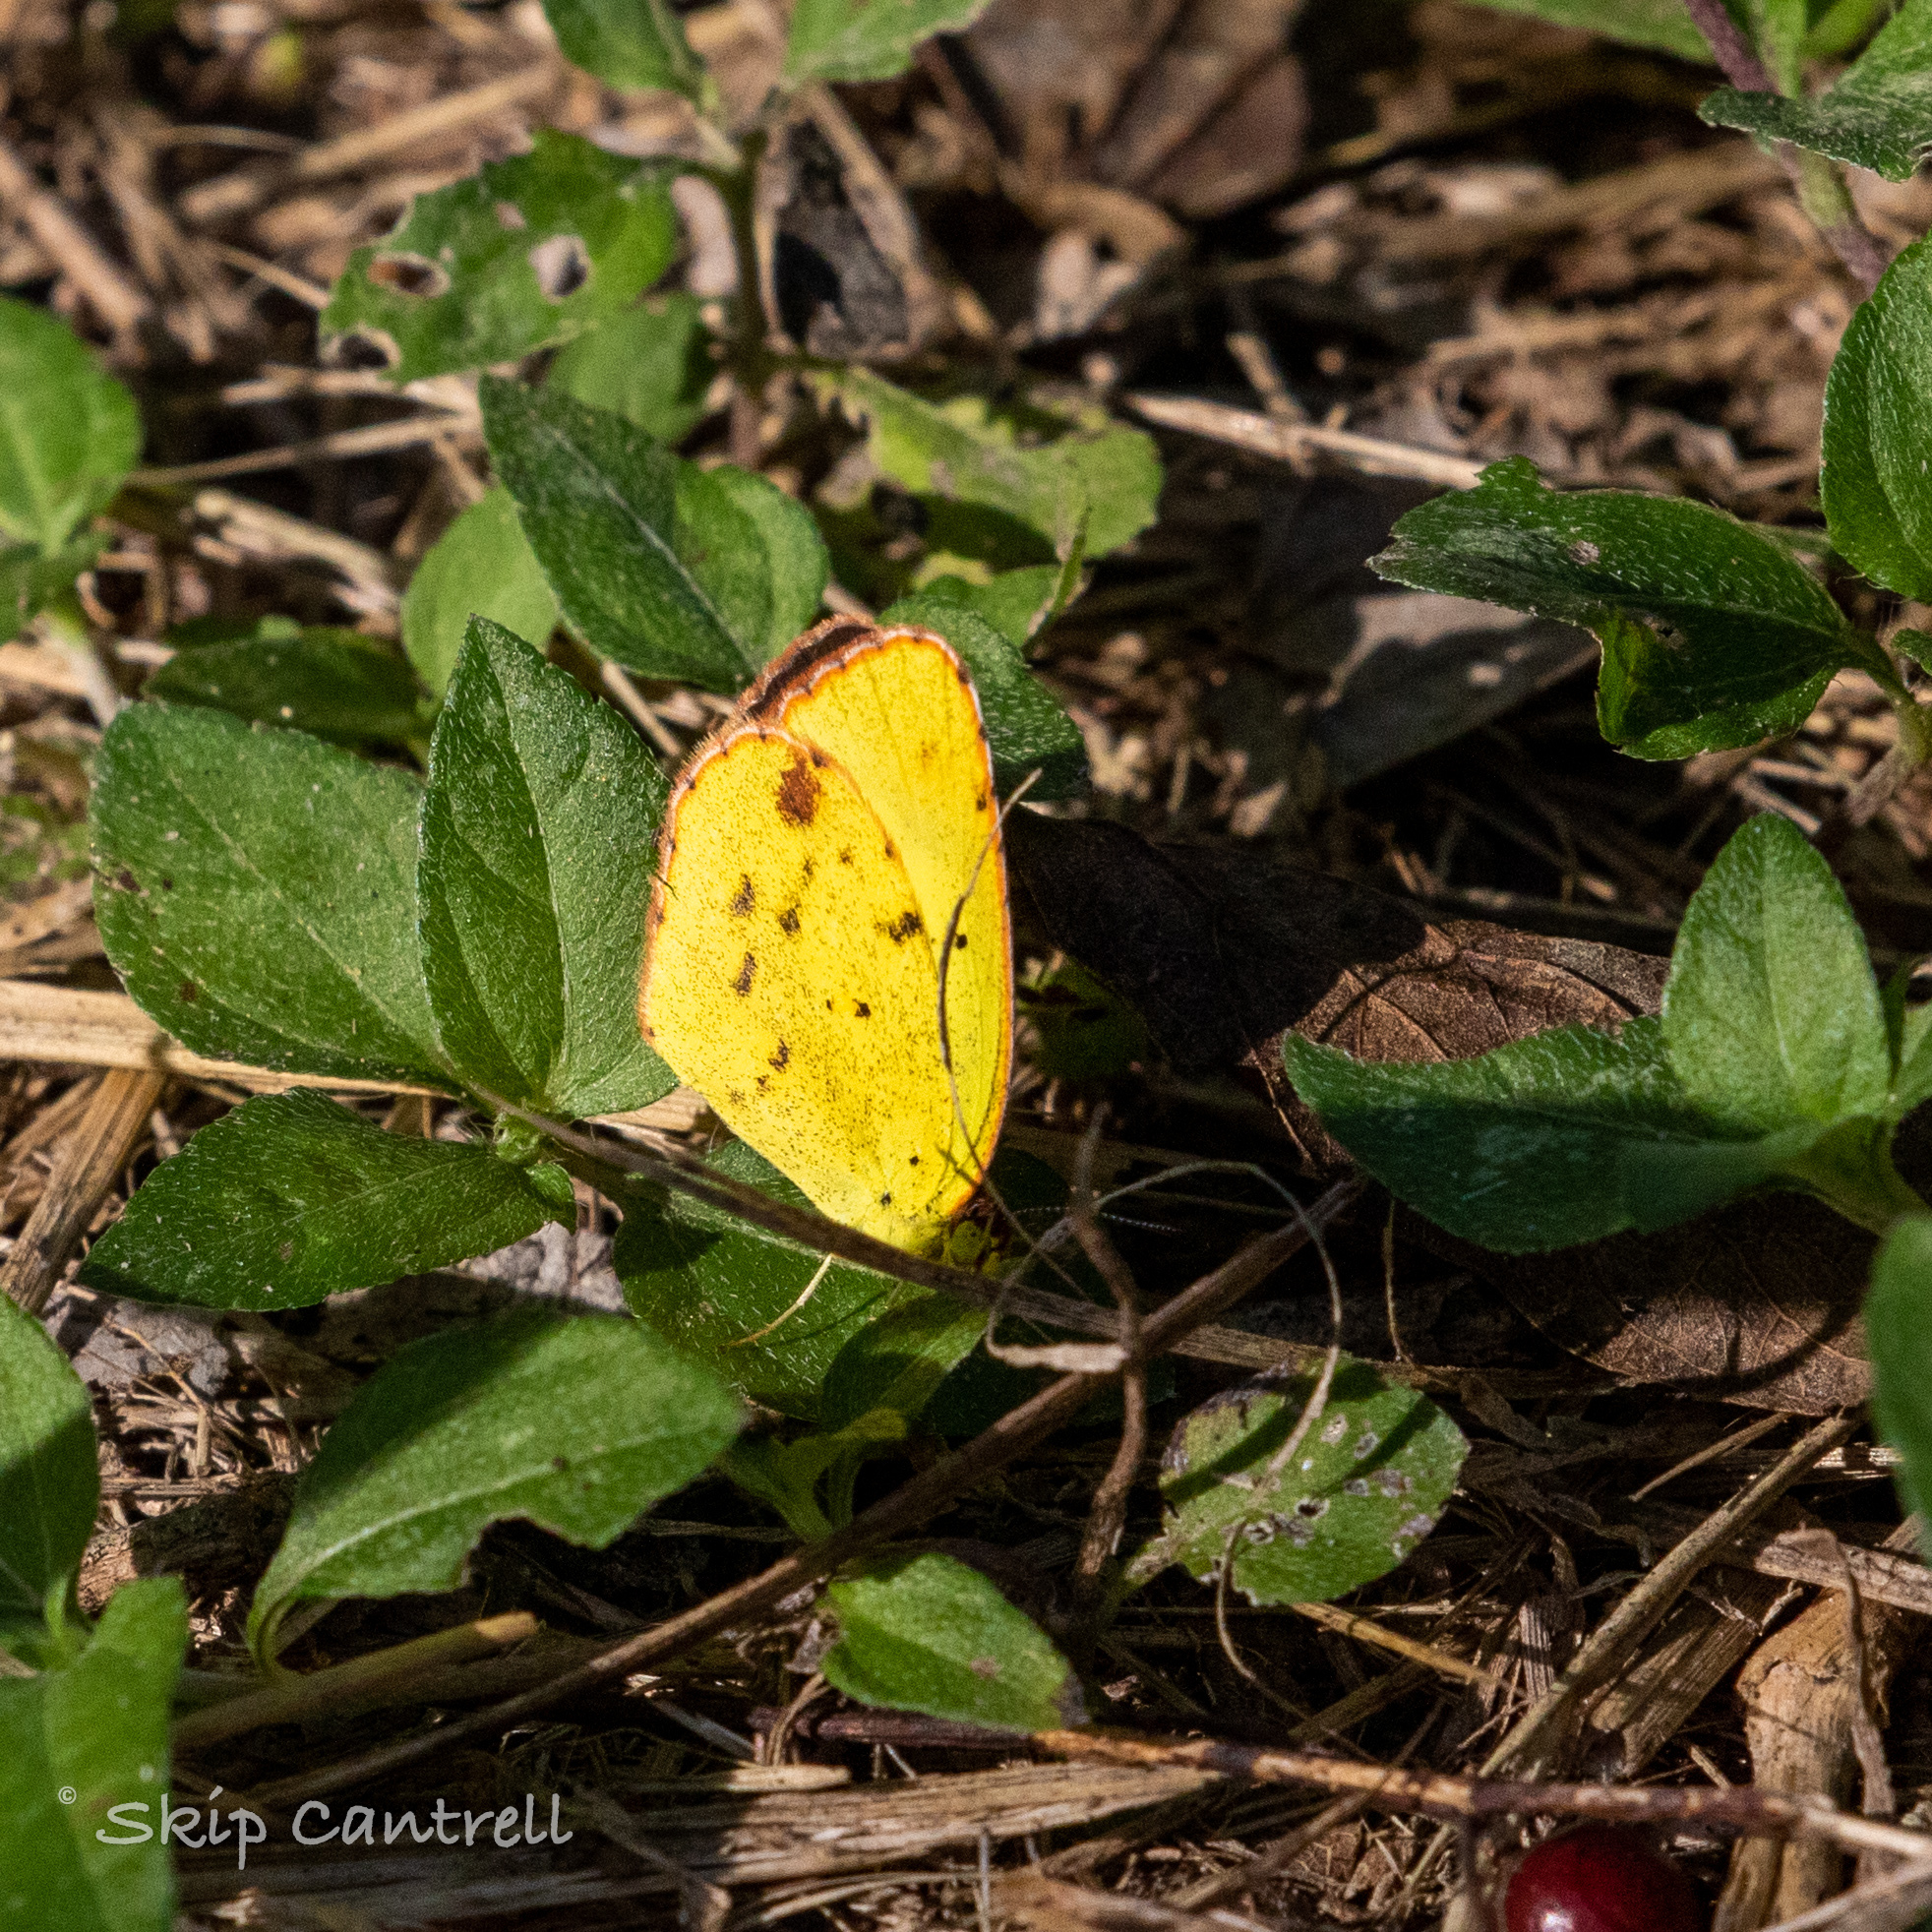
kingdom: Animalia
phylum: Arthropoda
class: Insecta
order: Lepidoptera
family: Pieridae
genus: Pyrisitia
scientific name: Pyrisitia lisa
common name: Little yellow
